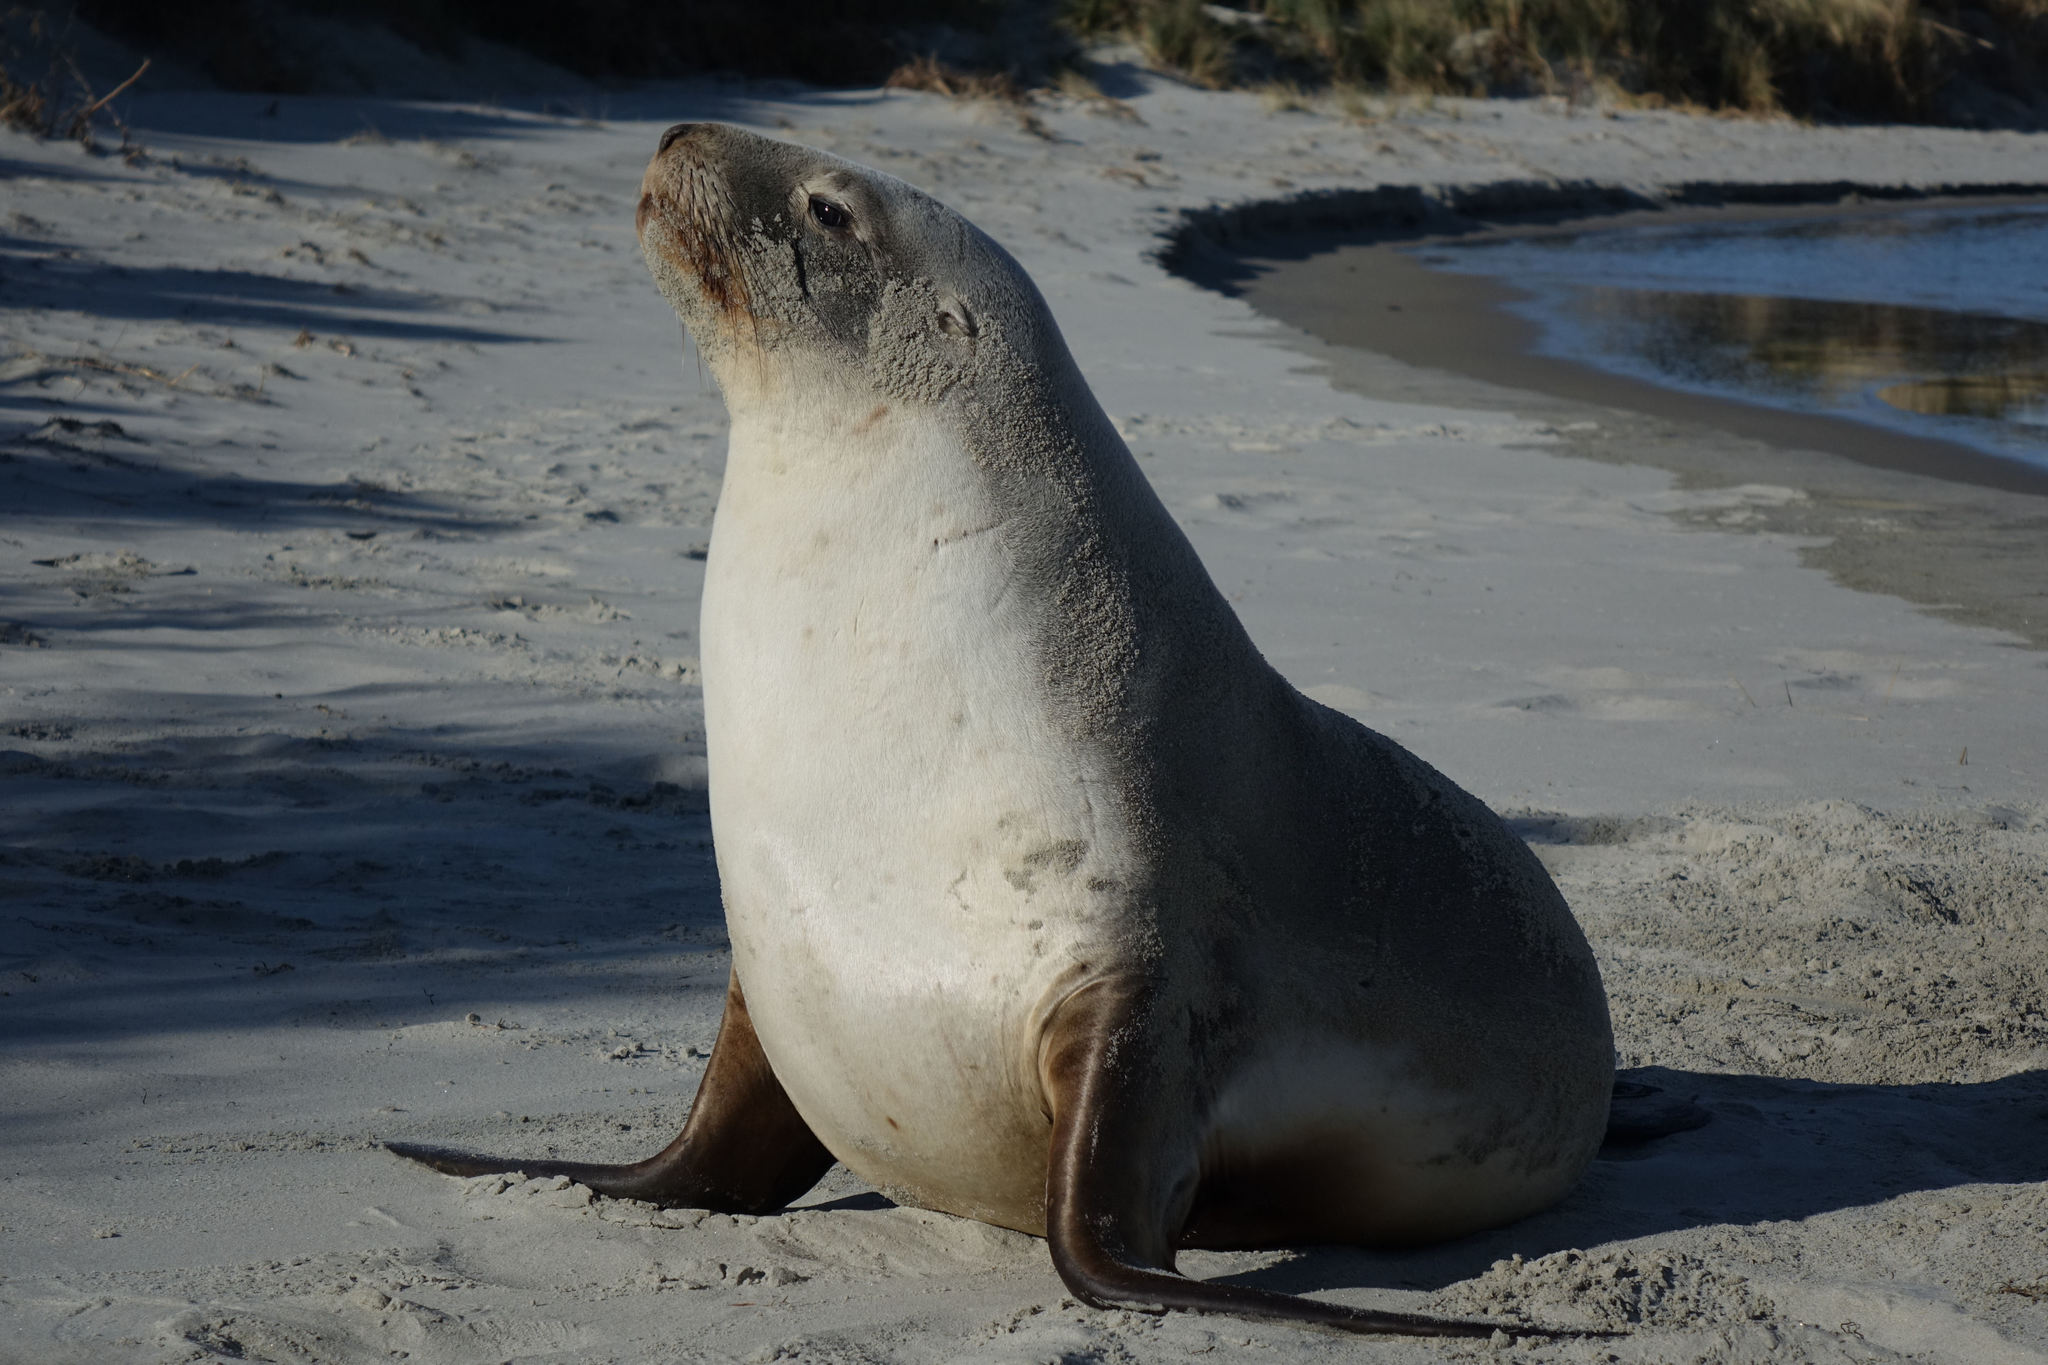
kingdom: Animalia
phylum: Chordata
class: Mammalia
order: Carnivora
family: Otariidae
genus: Phocarctos
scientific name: Phocarctos hookeri
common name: New zealand sea lion
